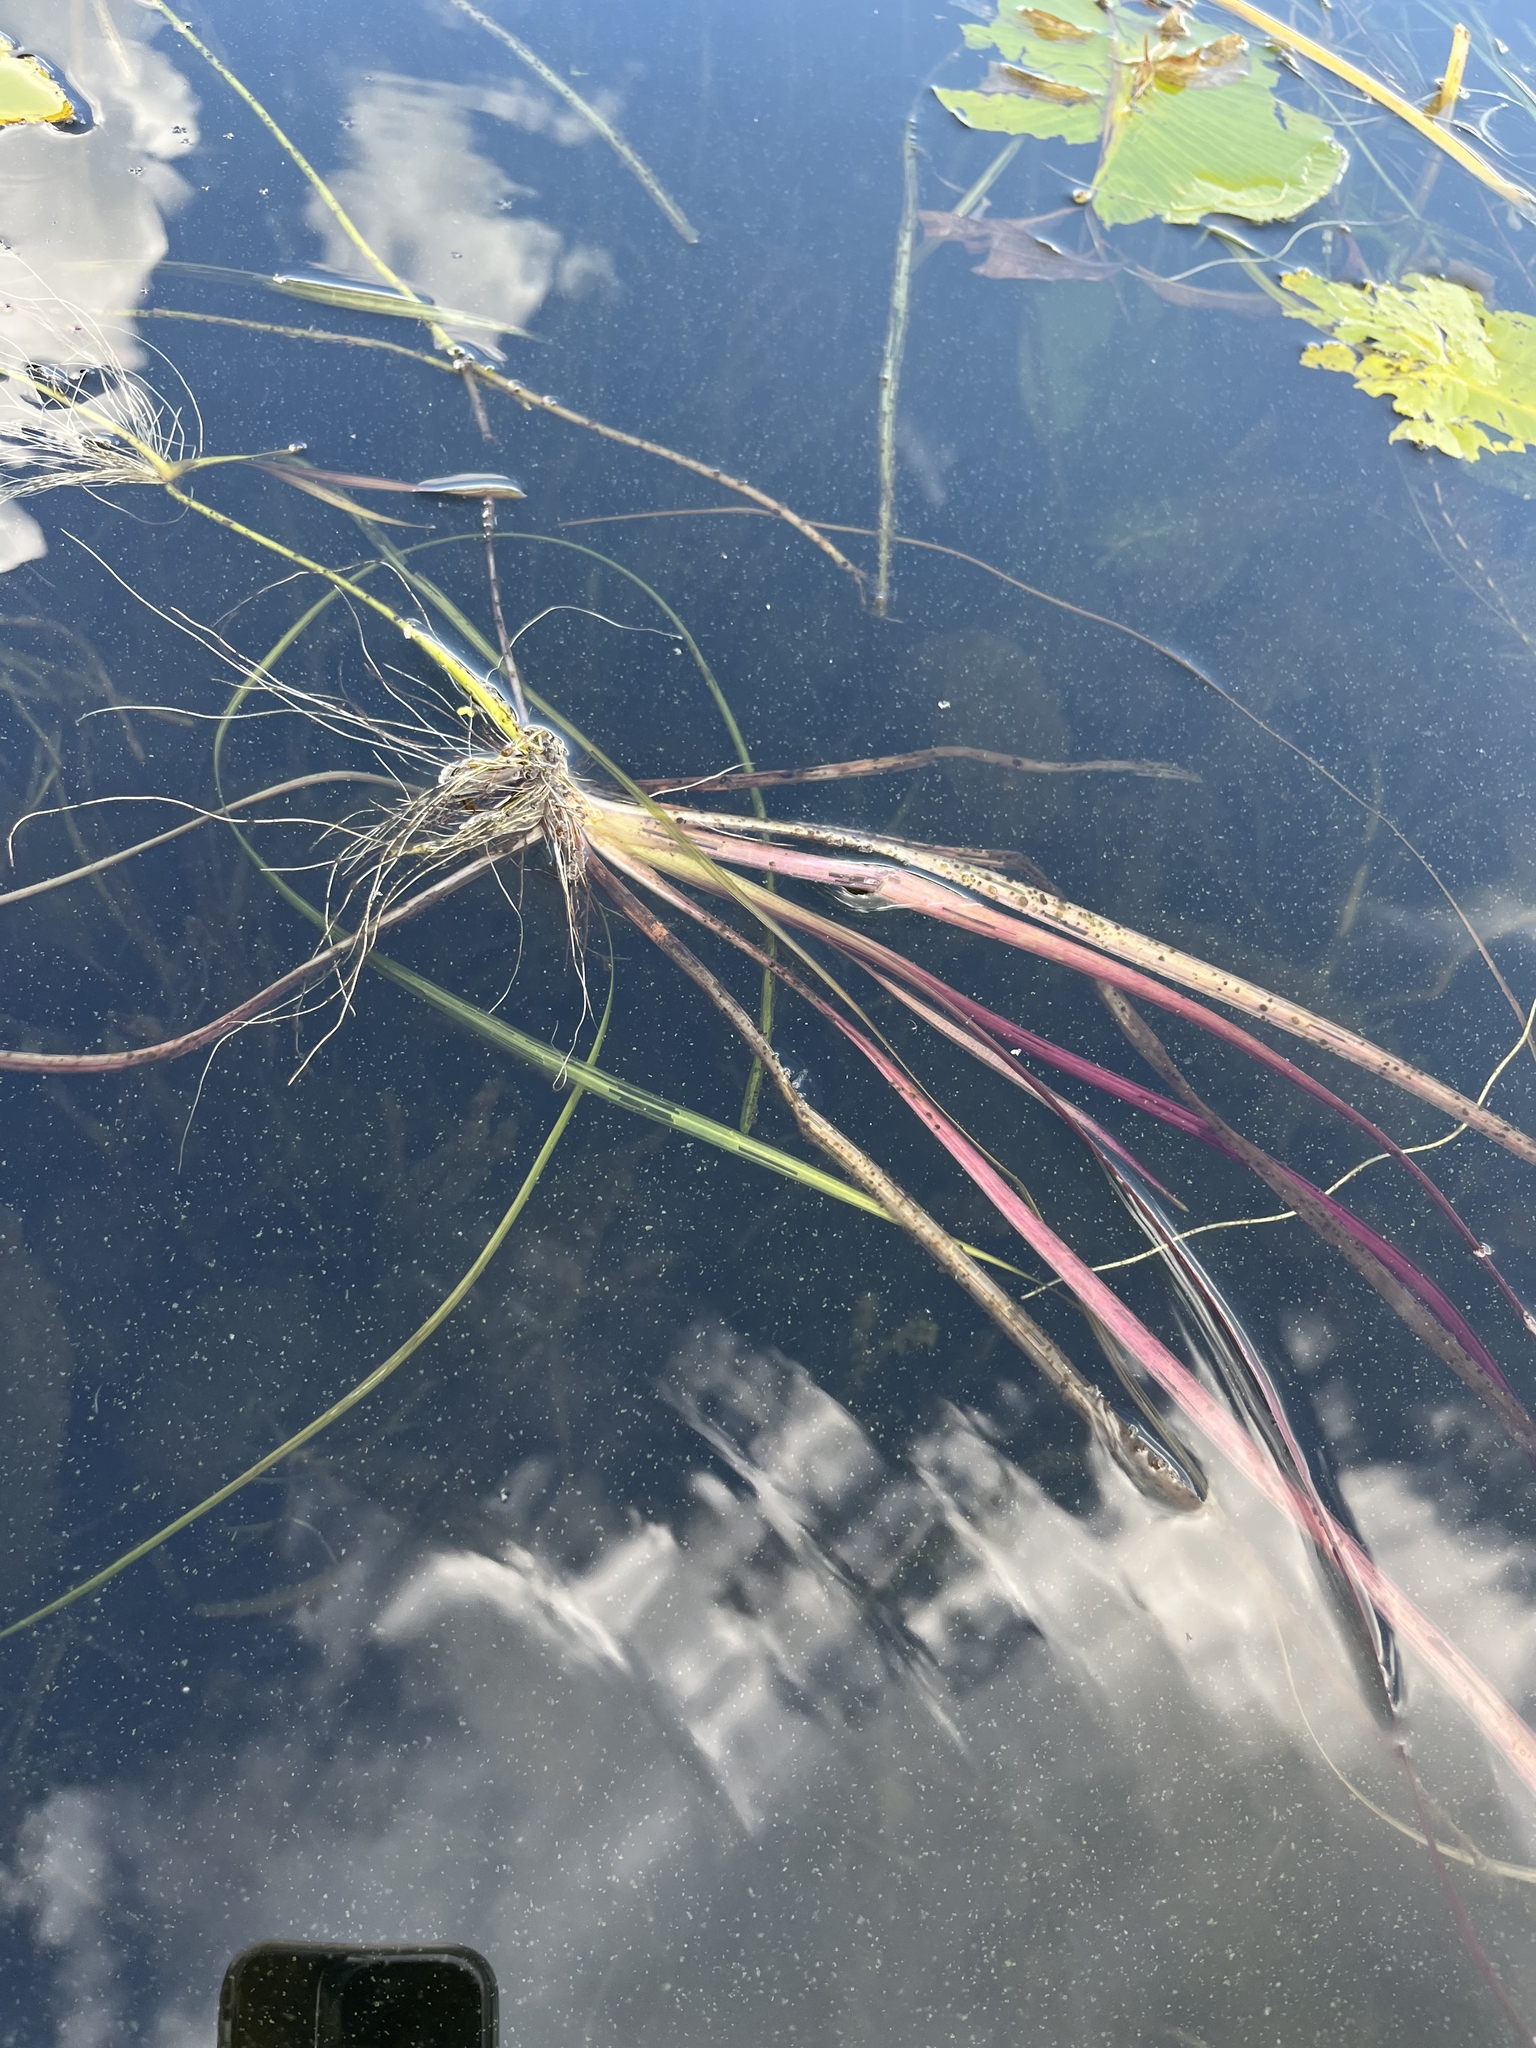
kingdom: Plantae
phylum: Tracheophyta
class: Liliopsida
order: Alismatales
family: Hydrocharitaceae
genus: Vallisneria
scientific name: Vallisneria americana
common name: American eelgrass
